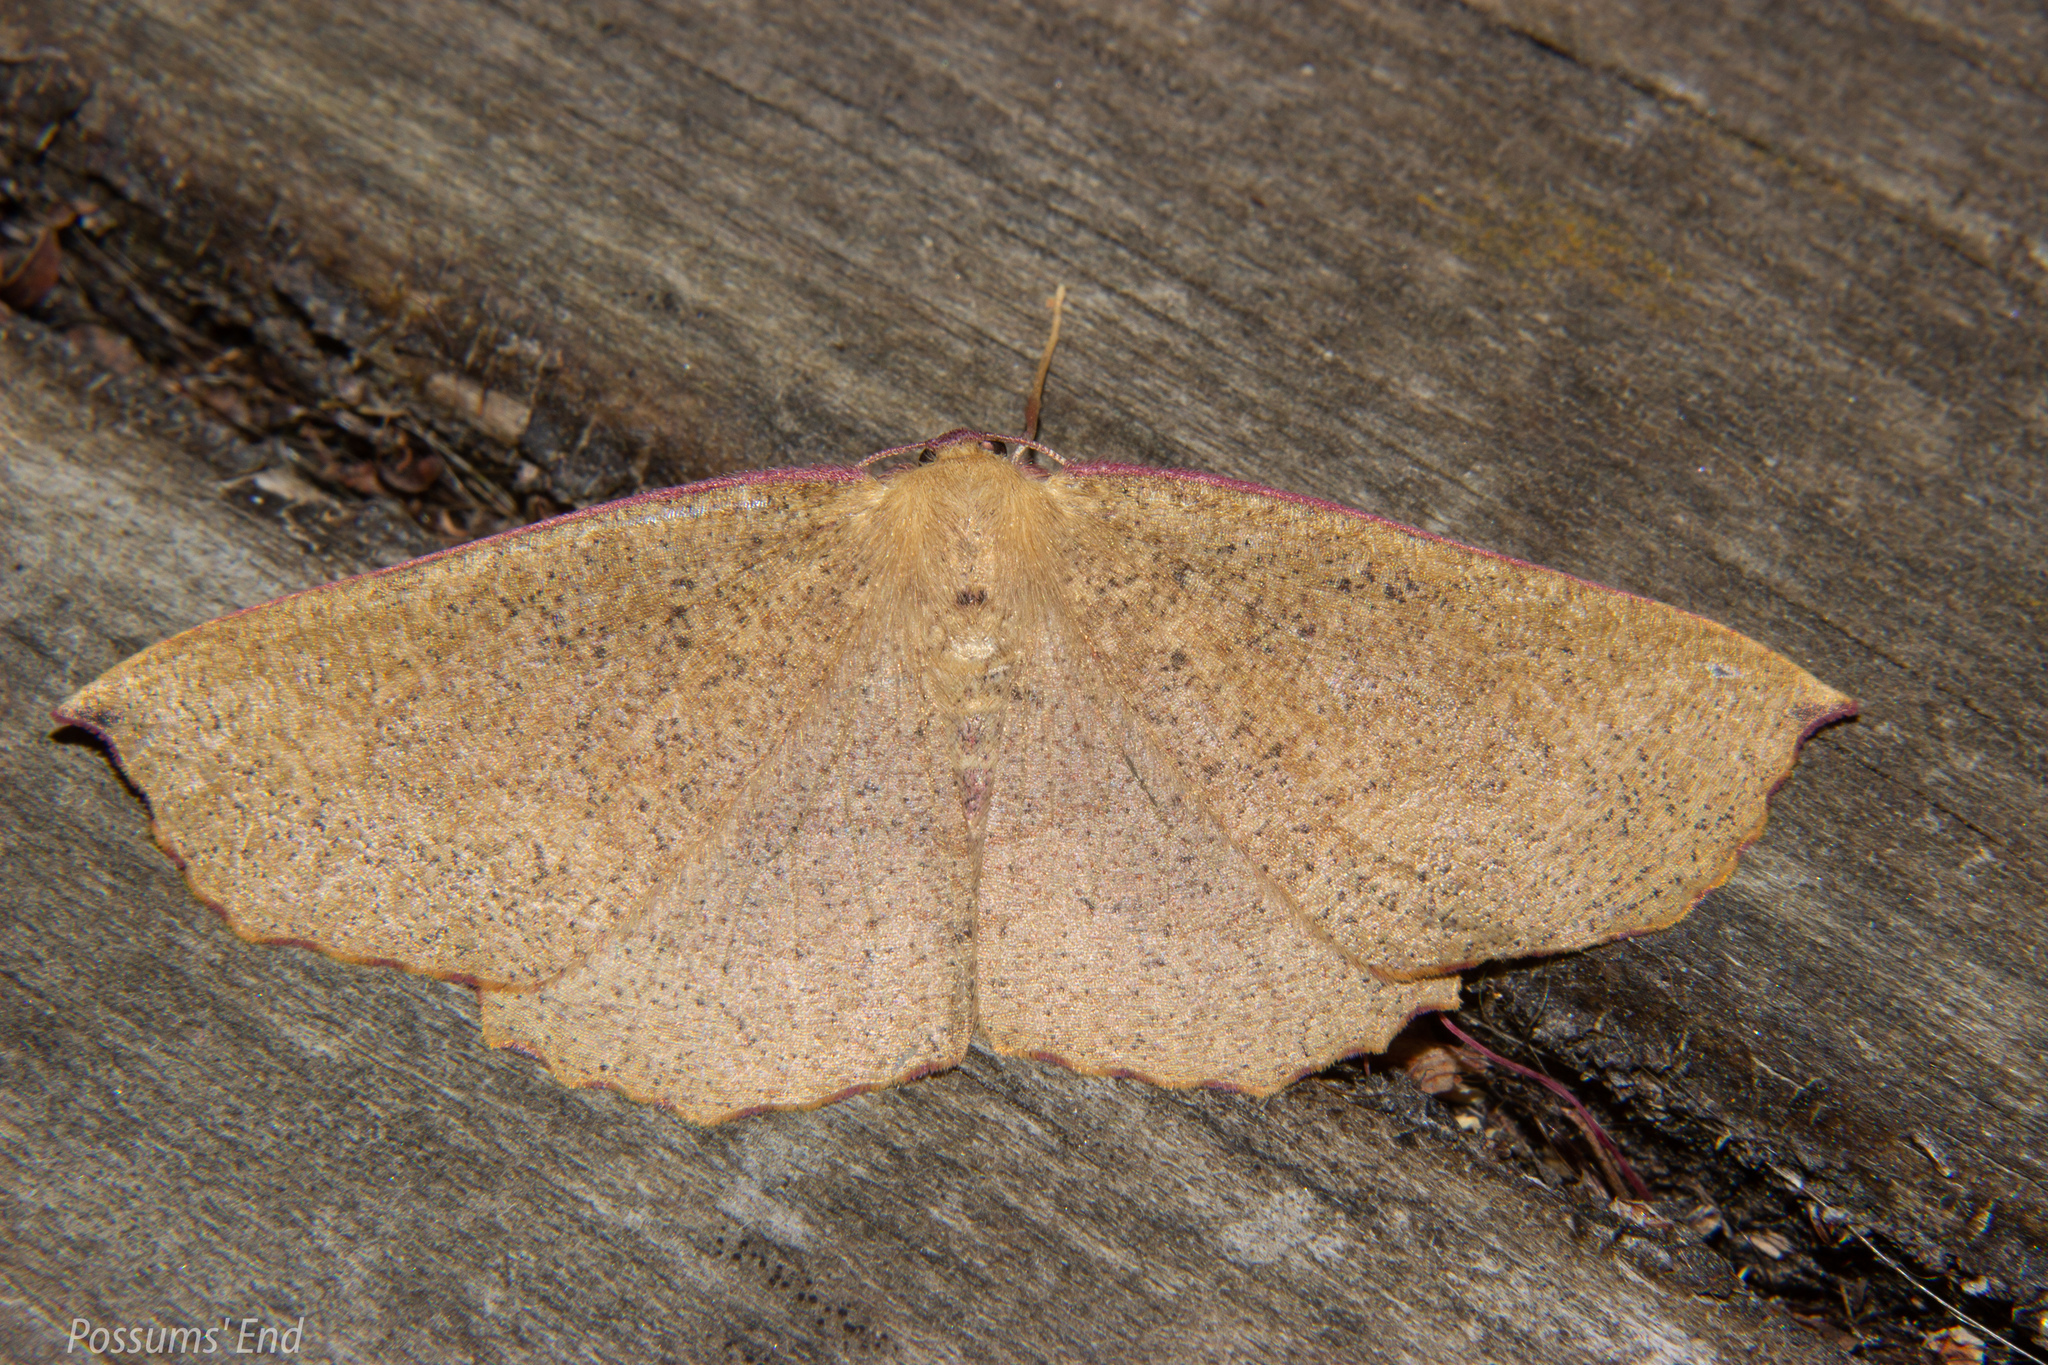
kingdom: Animalia
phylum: Arthropoda
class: Insecta
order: Lepidoptera
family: Geometridae
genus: Xyridacma
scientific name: Xyridacma alectoraria
